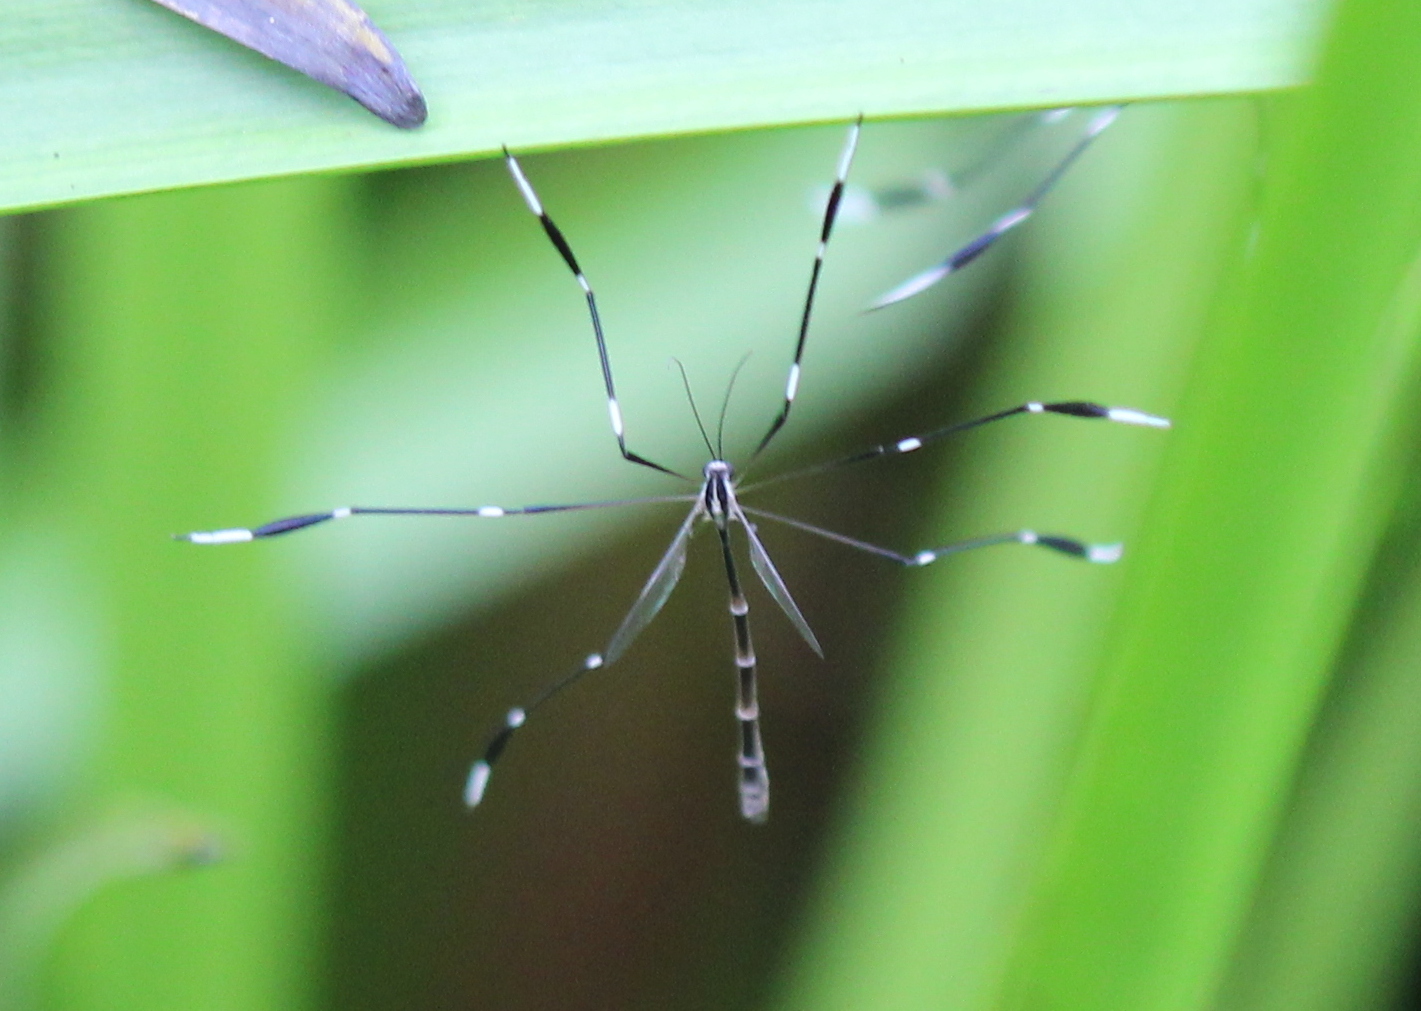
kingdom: Animalia
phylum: Arthropoda
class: Insecta
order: Diptera
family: Ptychopteridae
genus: Bittacomorpha
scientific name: Bittacomorpha clavipes
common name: Eastern phantom crane fly
